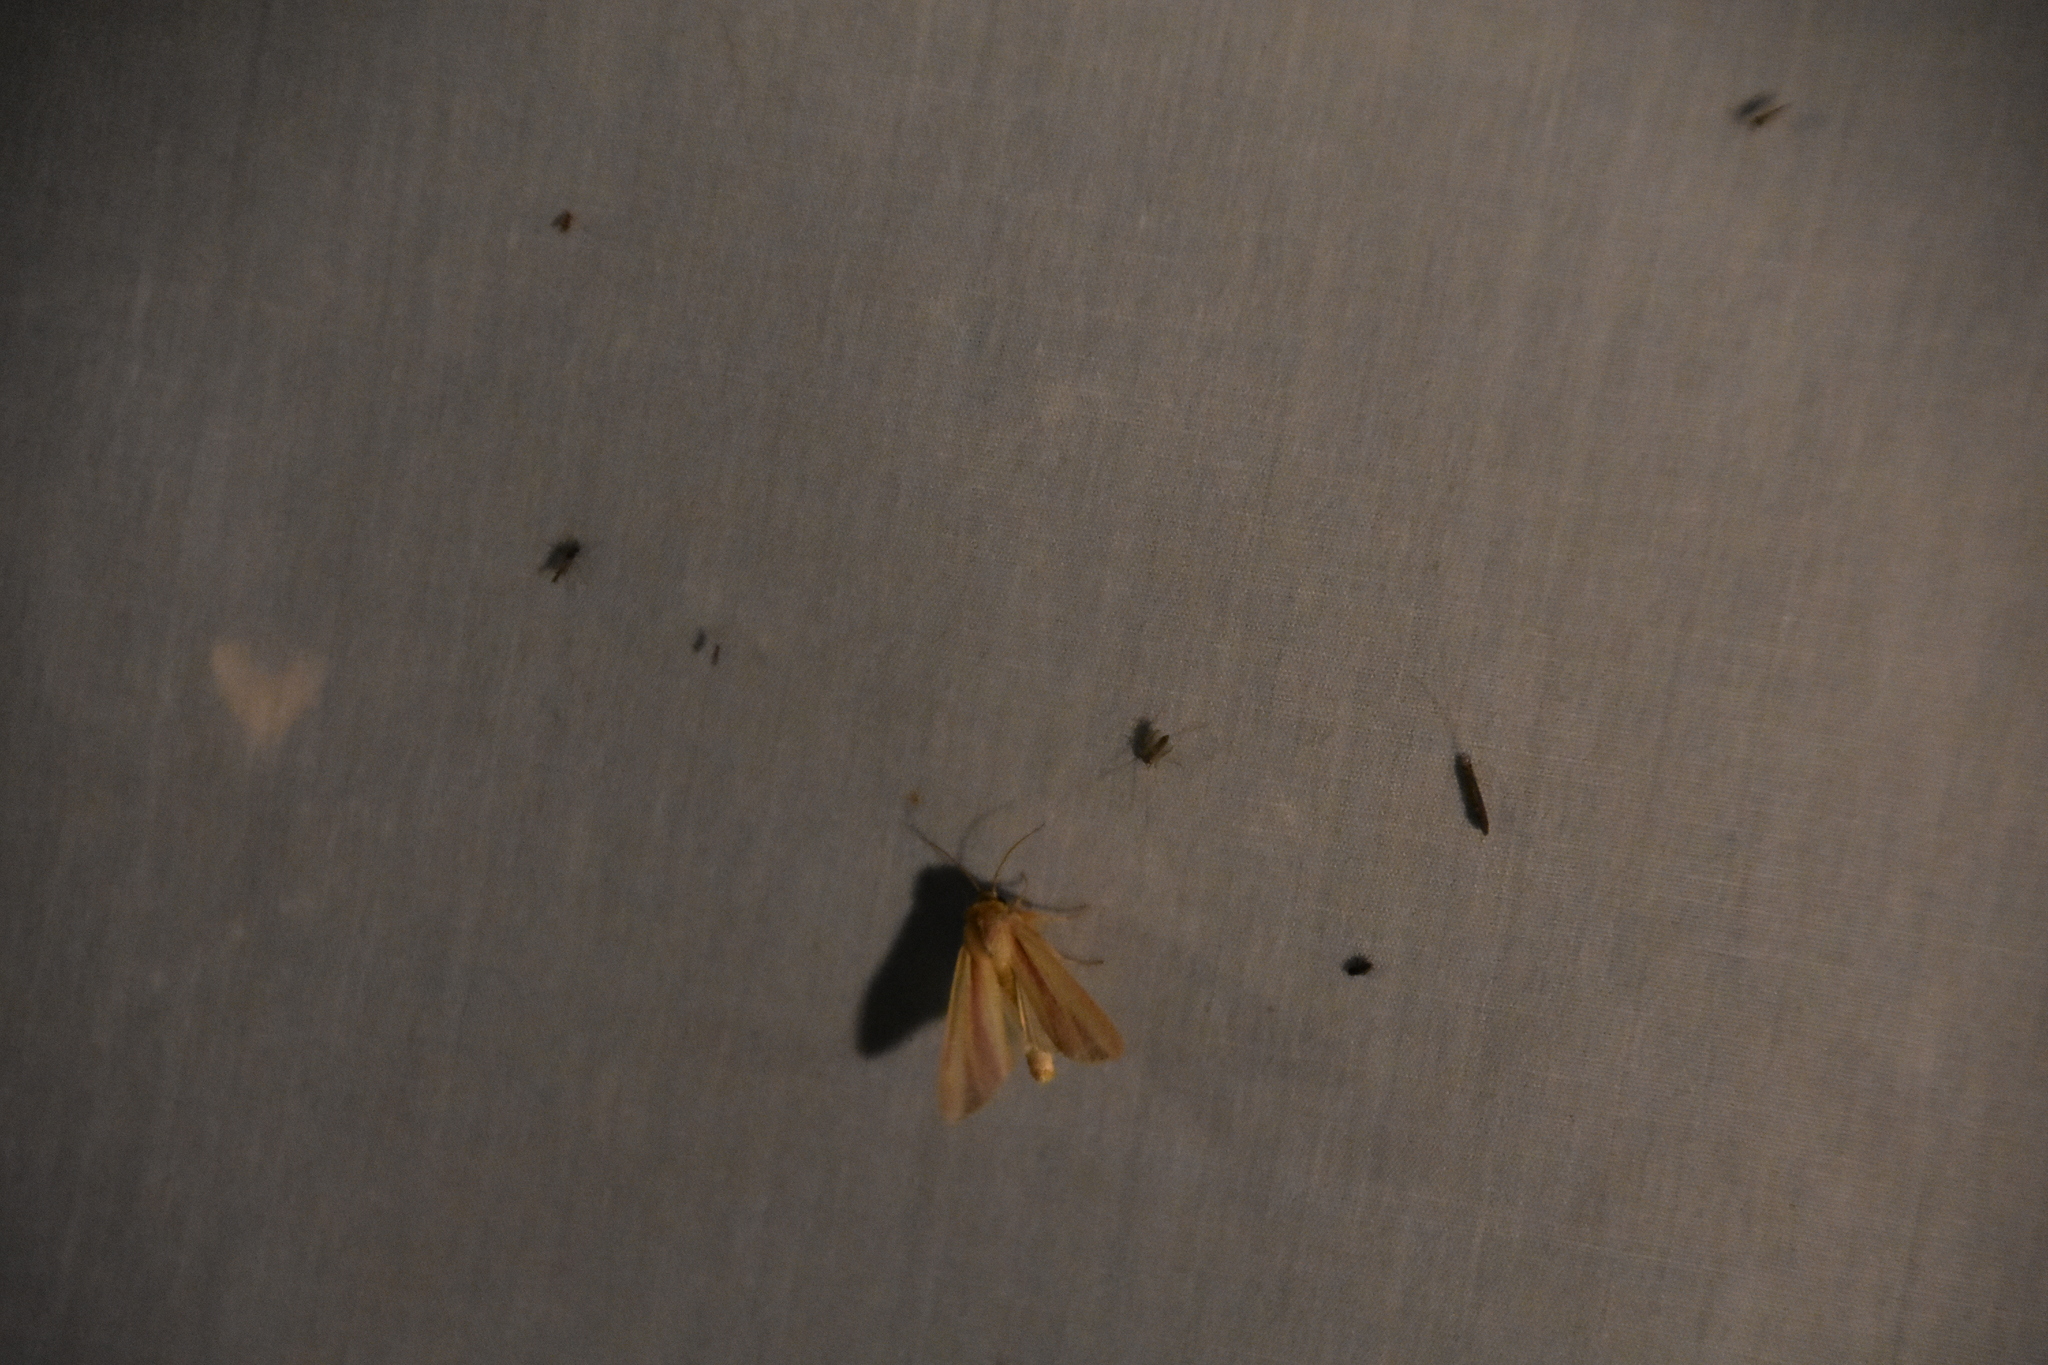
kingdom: Animalia
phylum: Arthropoda
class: Insecta
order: Lepidoptera
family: Noctuidae
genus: Dargida
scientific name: Dargida rubripennis
